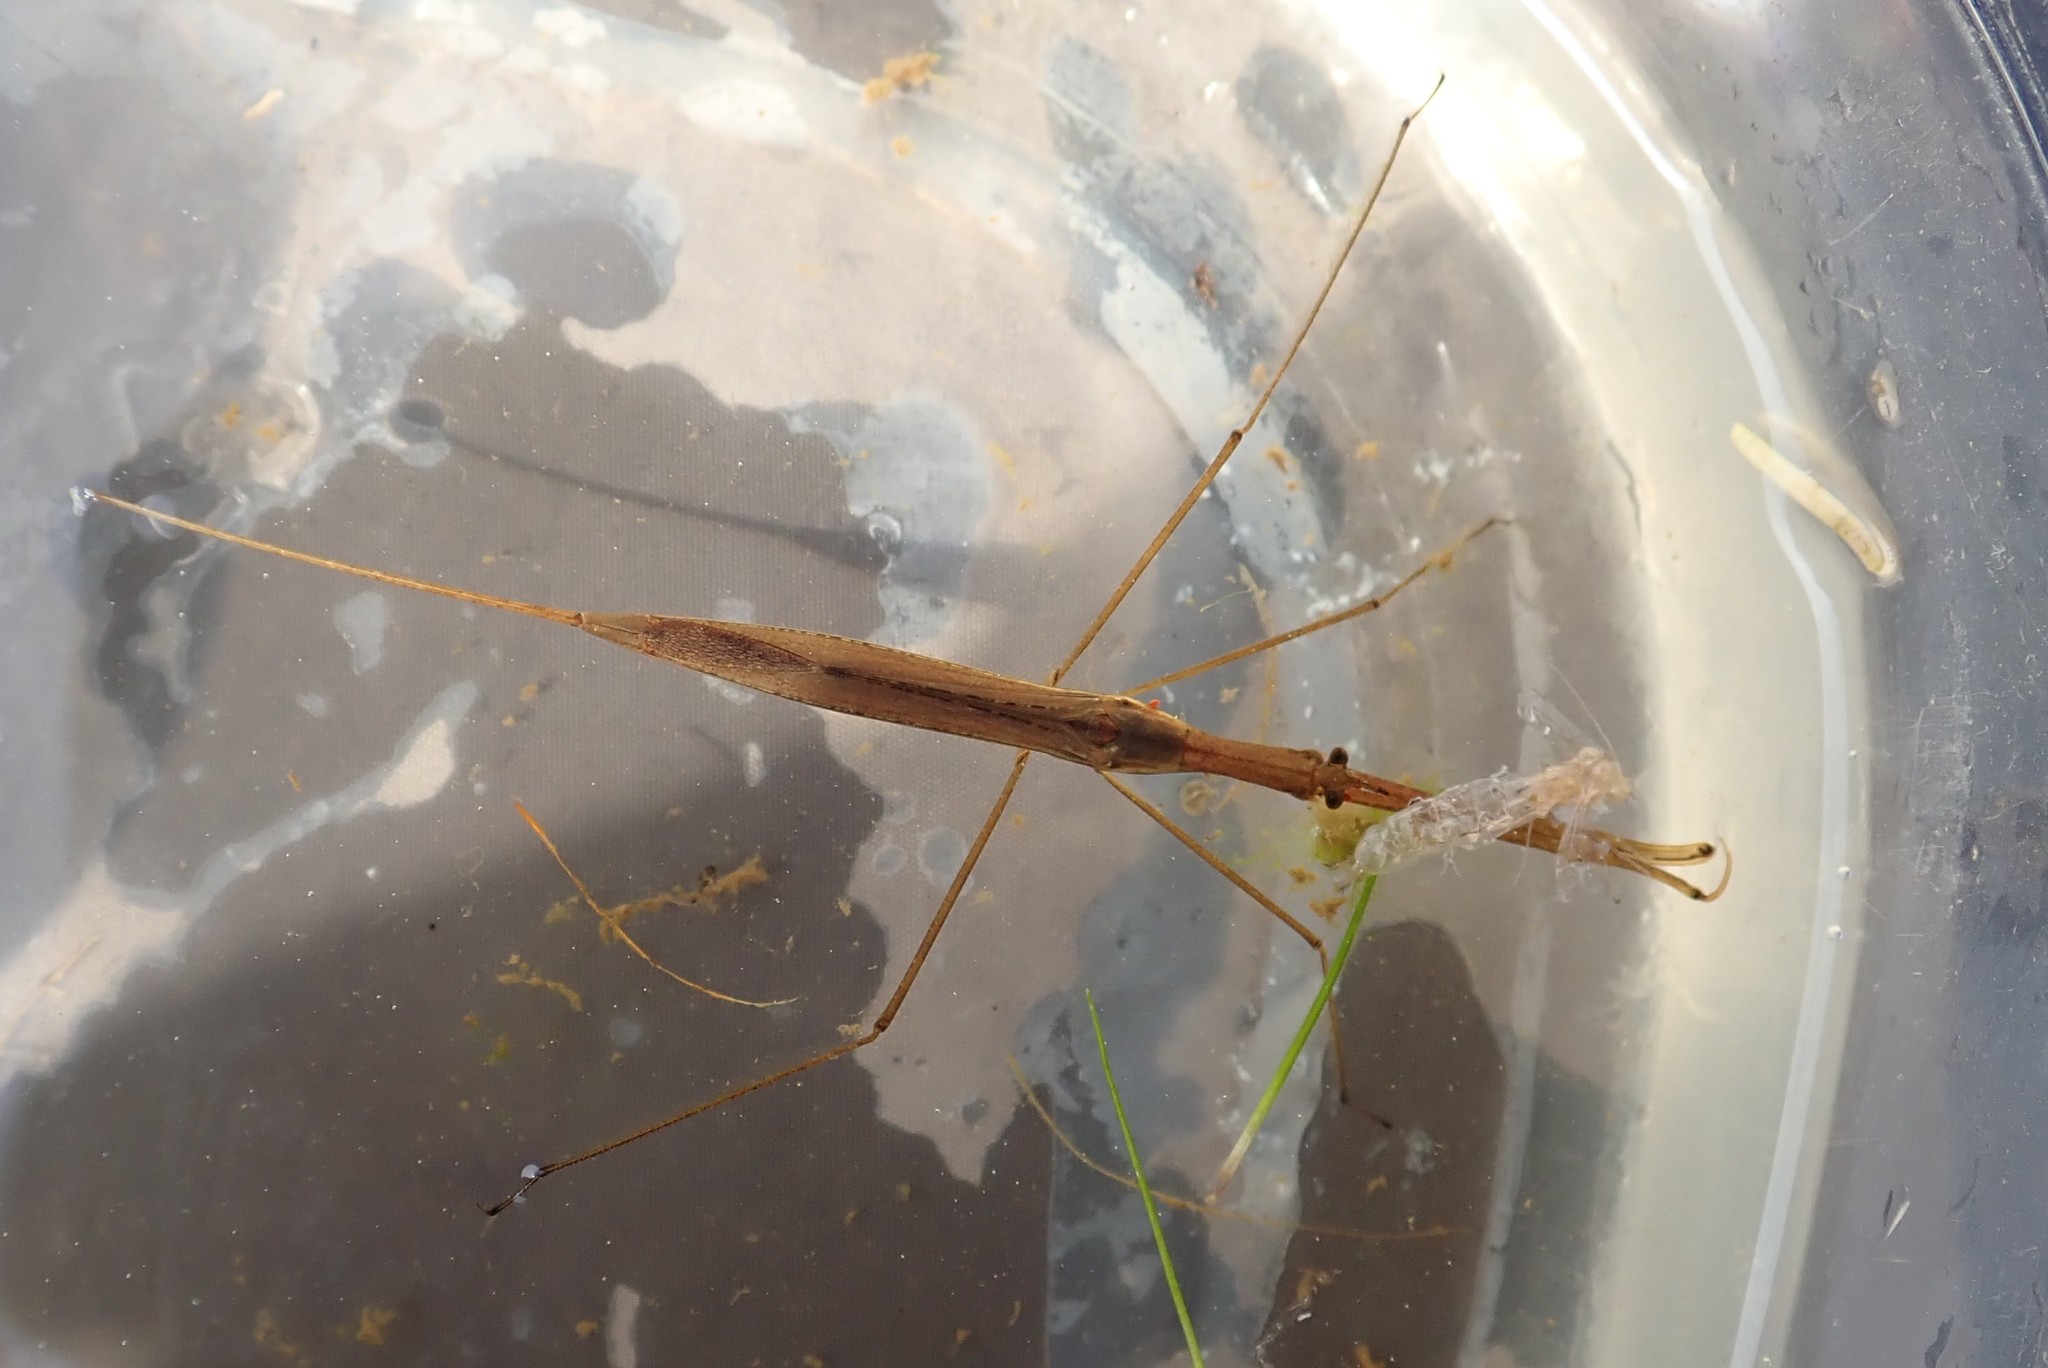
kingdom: Animalia
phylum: Arthropoda
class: Insecta
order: Hemiptera
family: Nepidae
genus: Ranatra
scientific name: Ranatra fusca
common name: Brown waterscorpion
